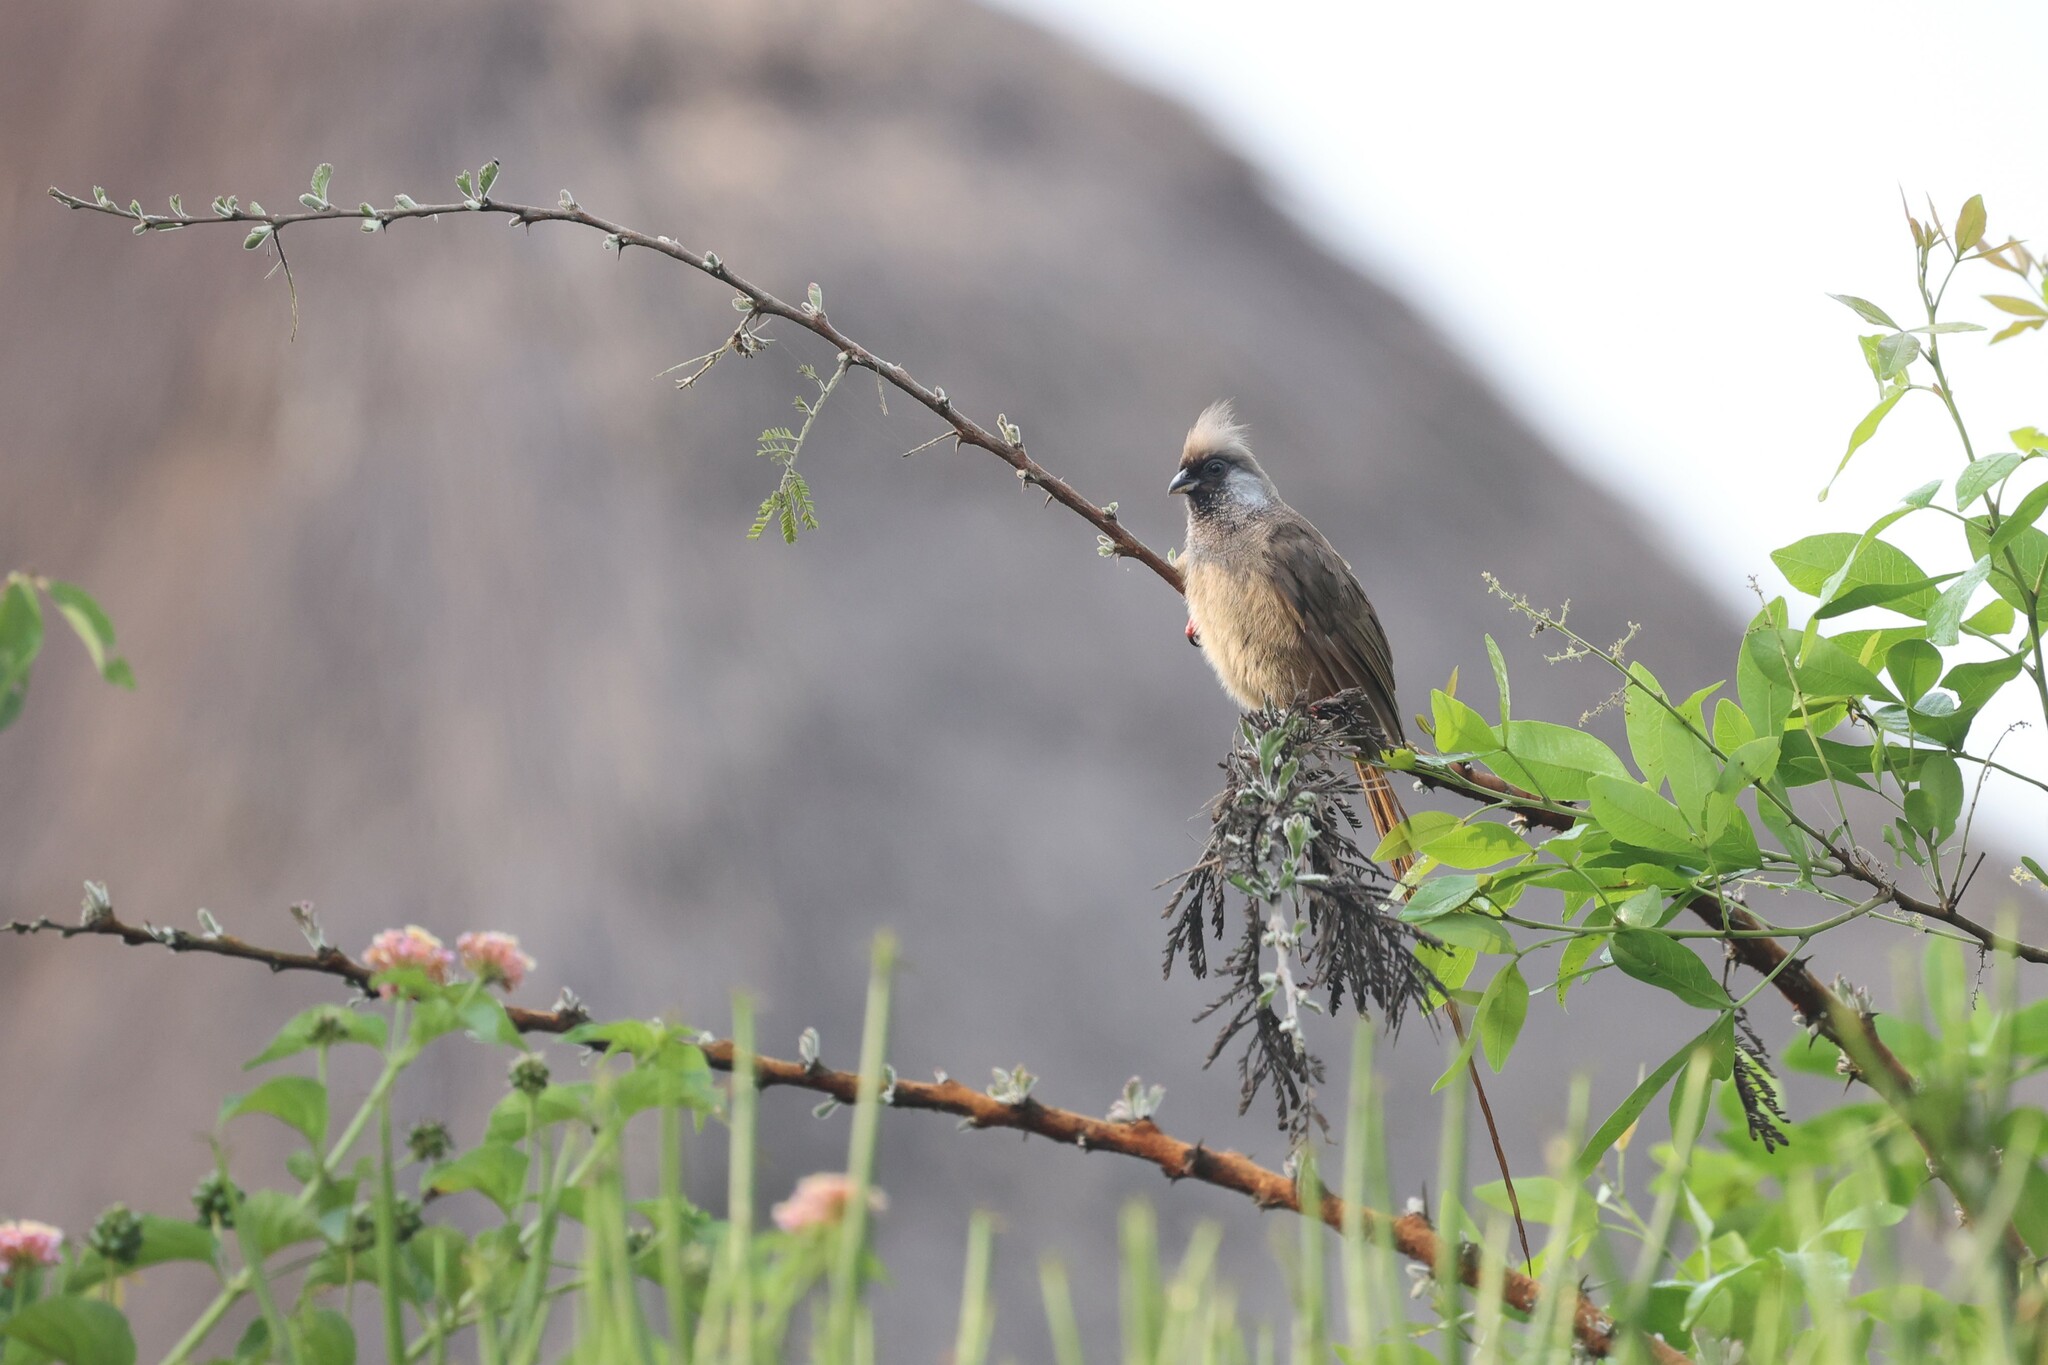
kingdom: Animalia
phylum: Chordata
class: Aves
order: Coliiformes
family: Coliidae
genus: Colius
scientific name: Colius striatus
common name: Speckled mousebird
